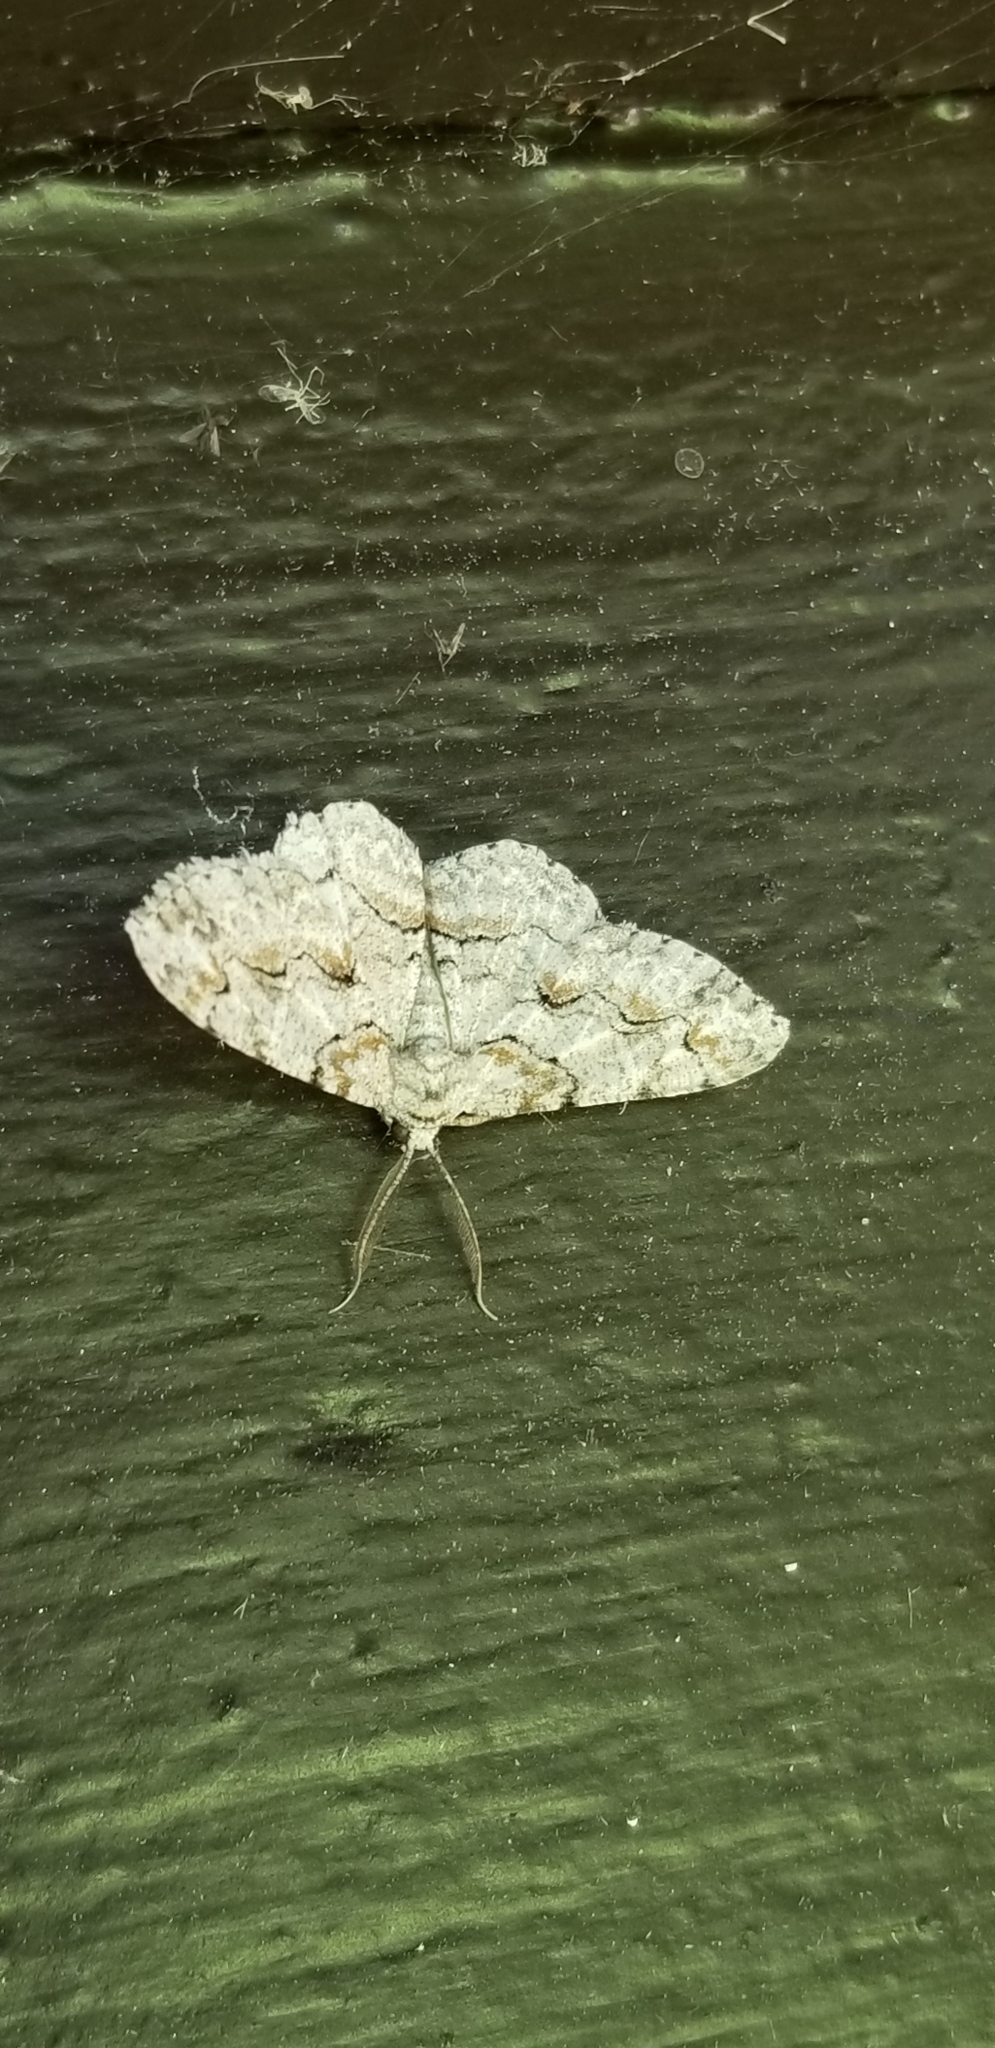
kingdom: Animalia
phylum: Arthropoda
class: Insecta
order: Lepidoptera
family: Geometridae
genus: Iridopsis
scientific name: Iridopsis defectaria
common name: Brown-shaded gray
